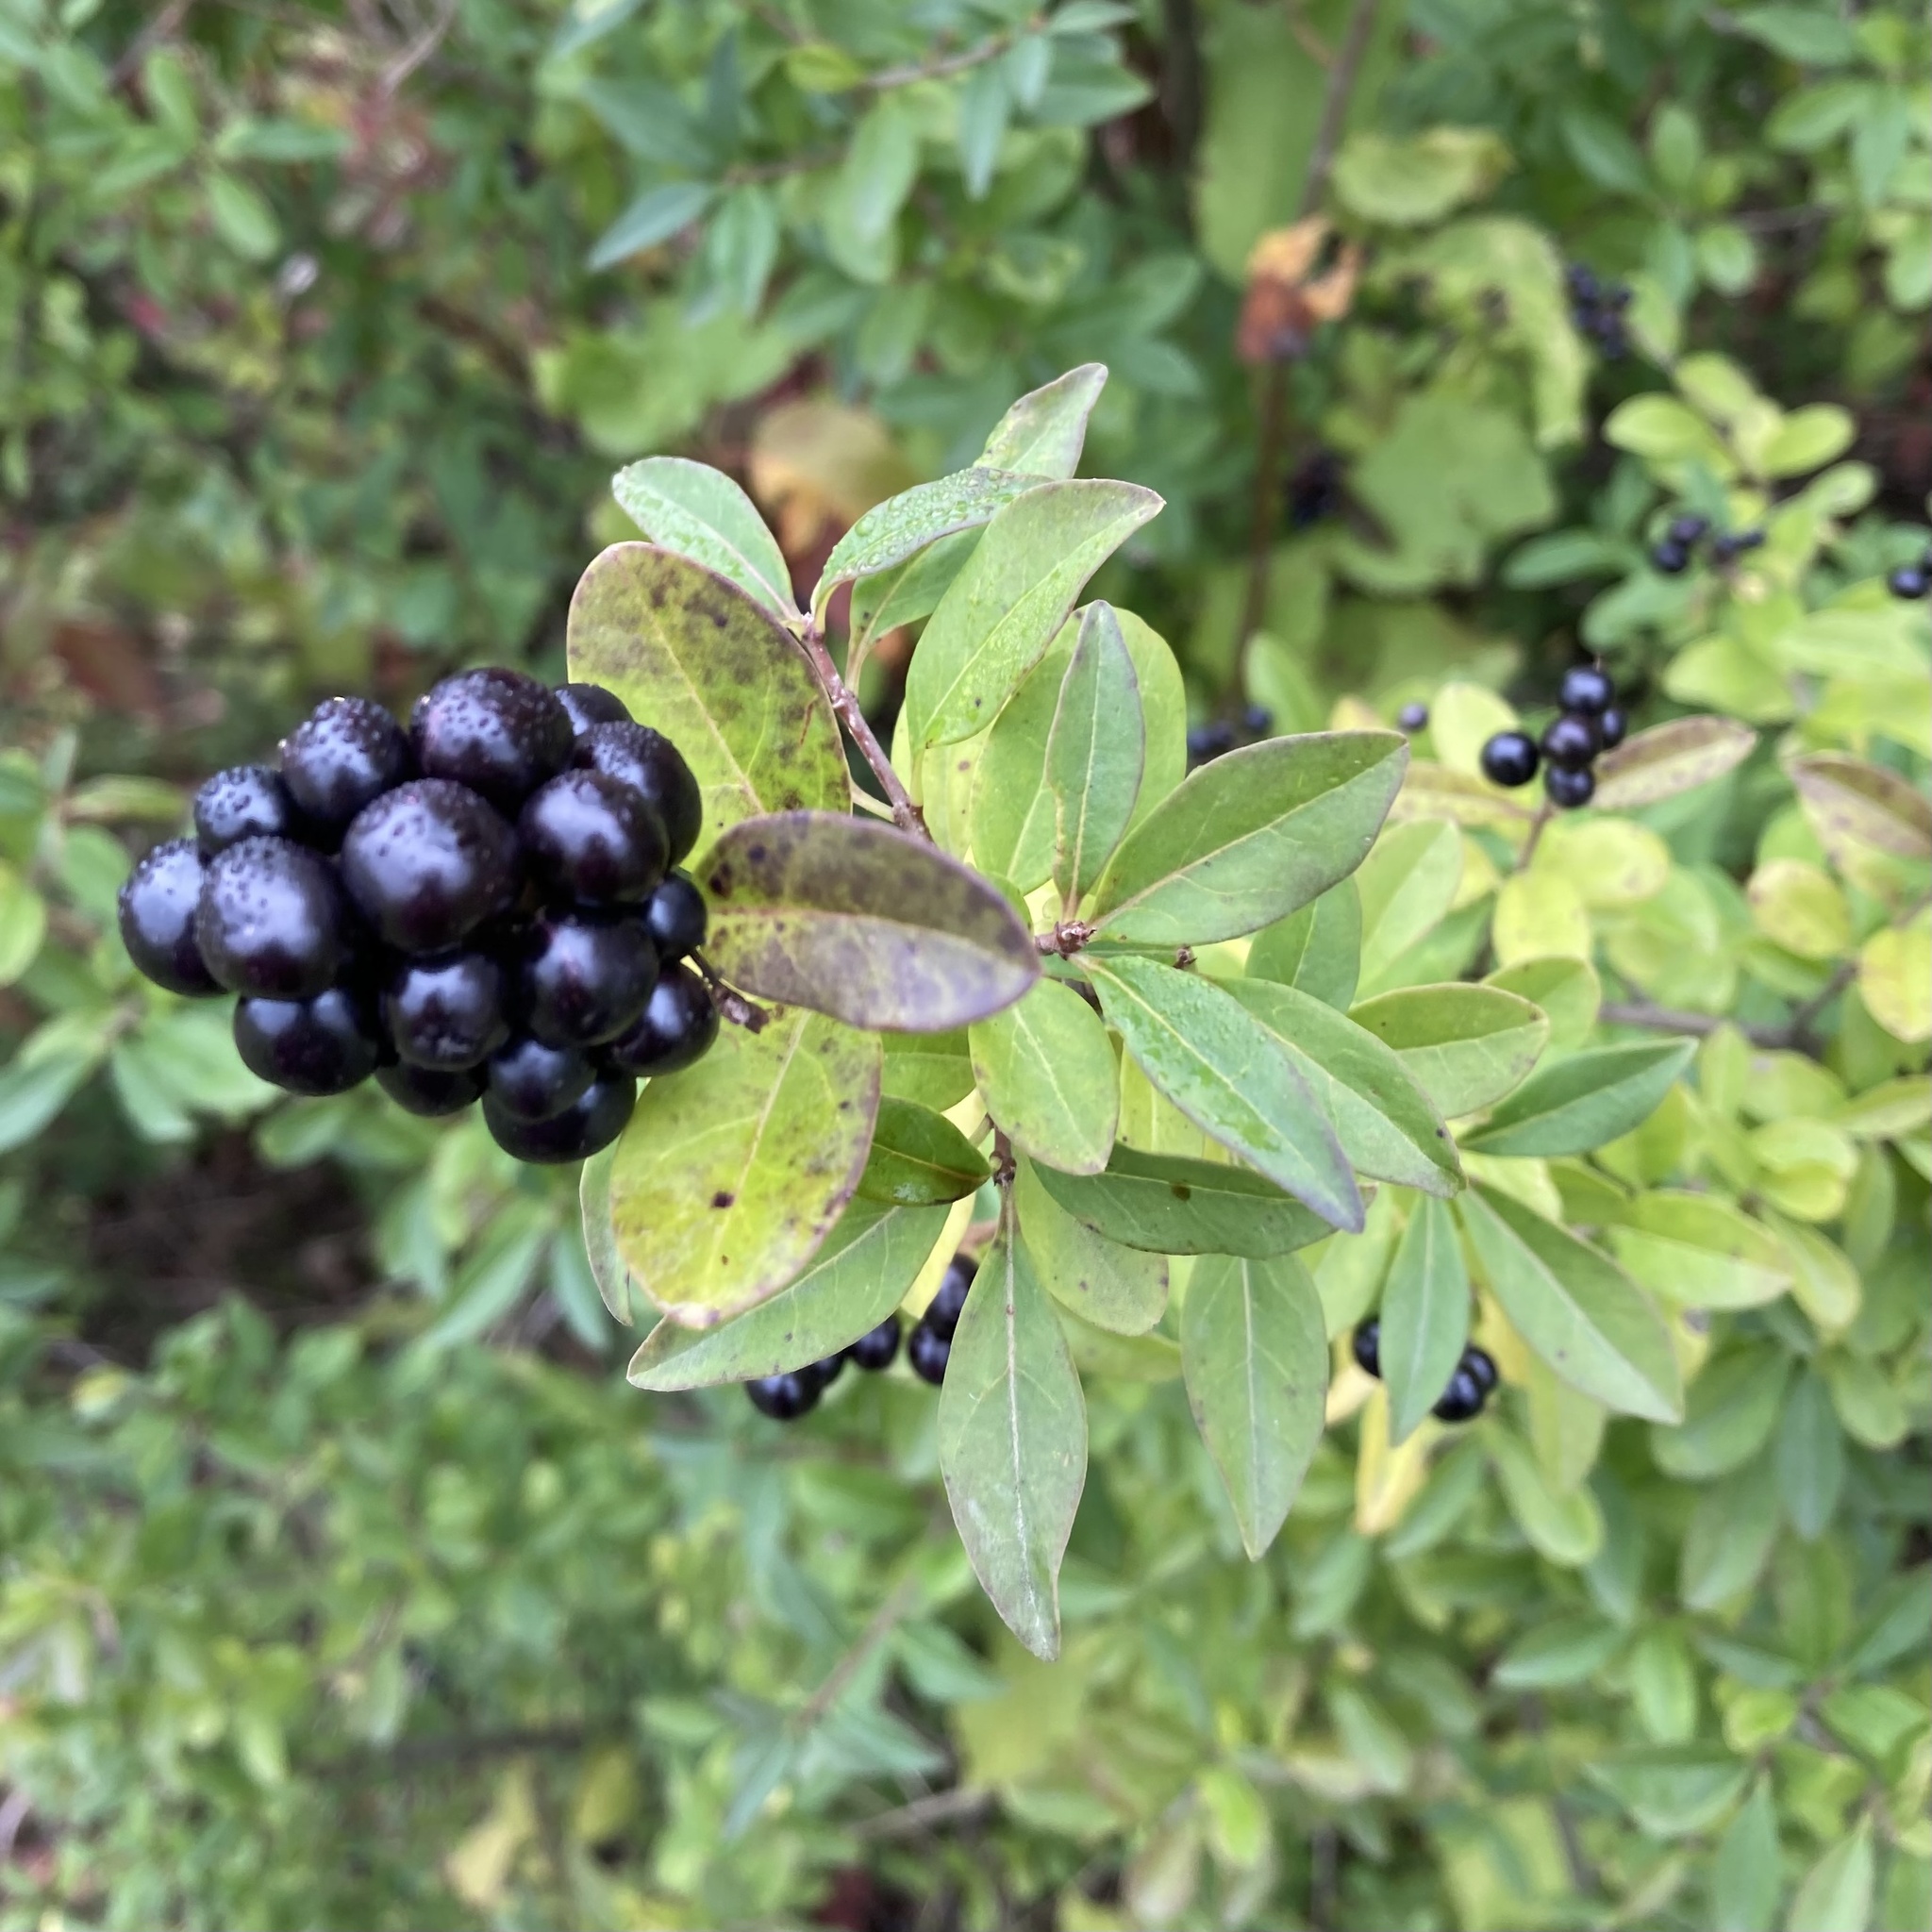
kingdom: Plantae
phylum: Tracheophyta
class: Magnoliopsida
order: Lamiales
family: Oleaceae
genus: Ligustrum
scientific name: Ligustrum vulgare
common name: Wild privet
